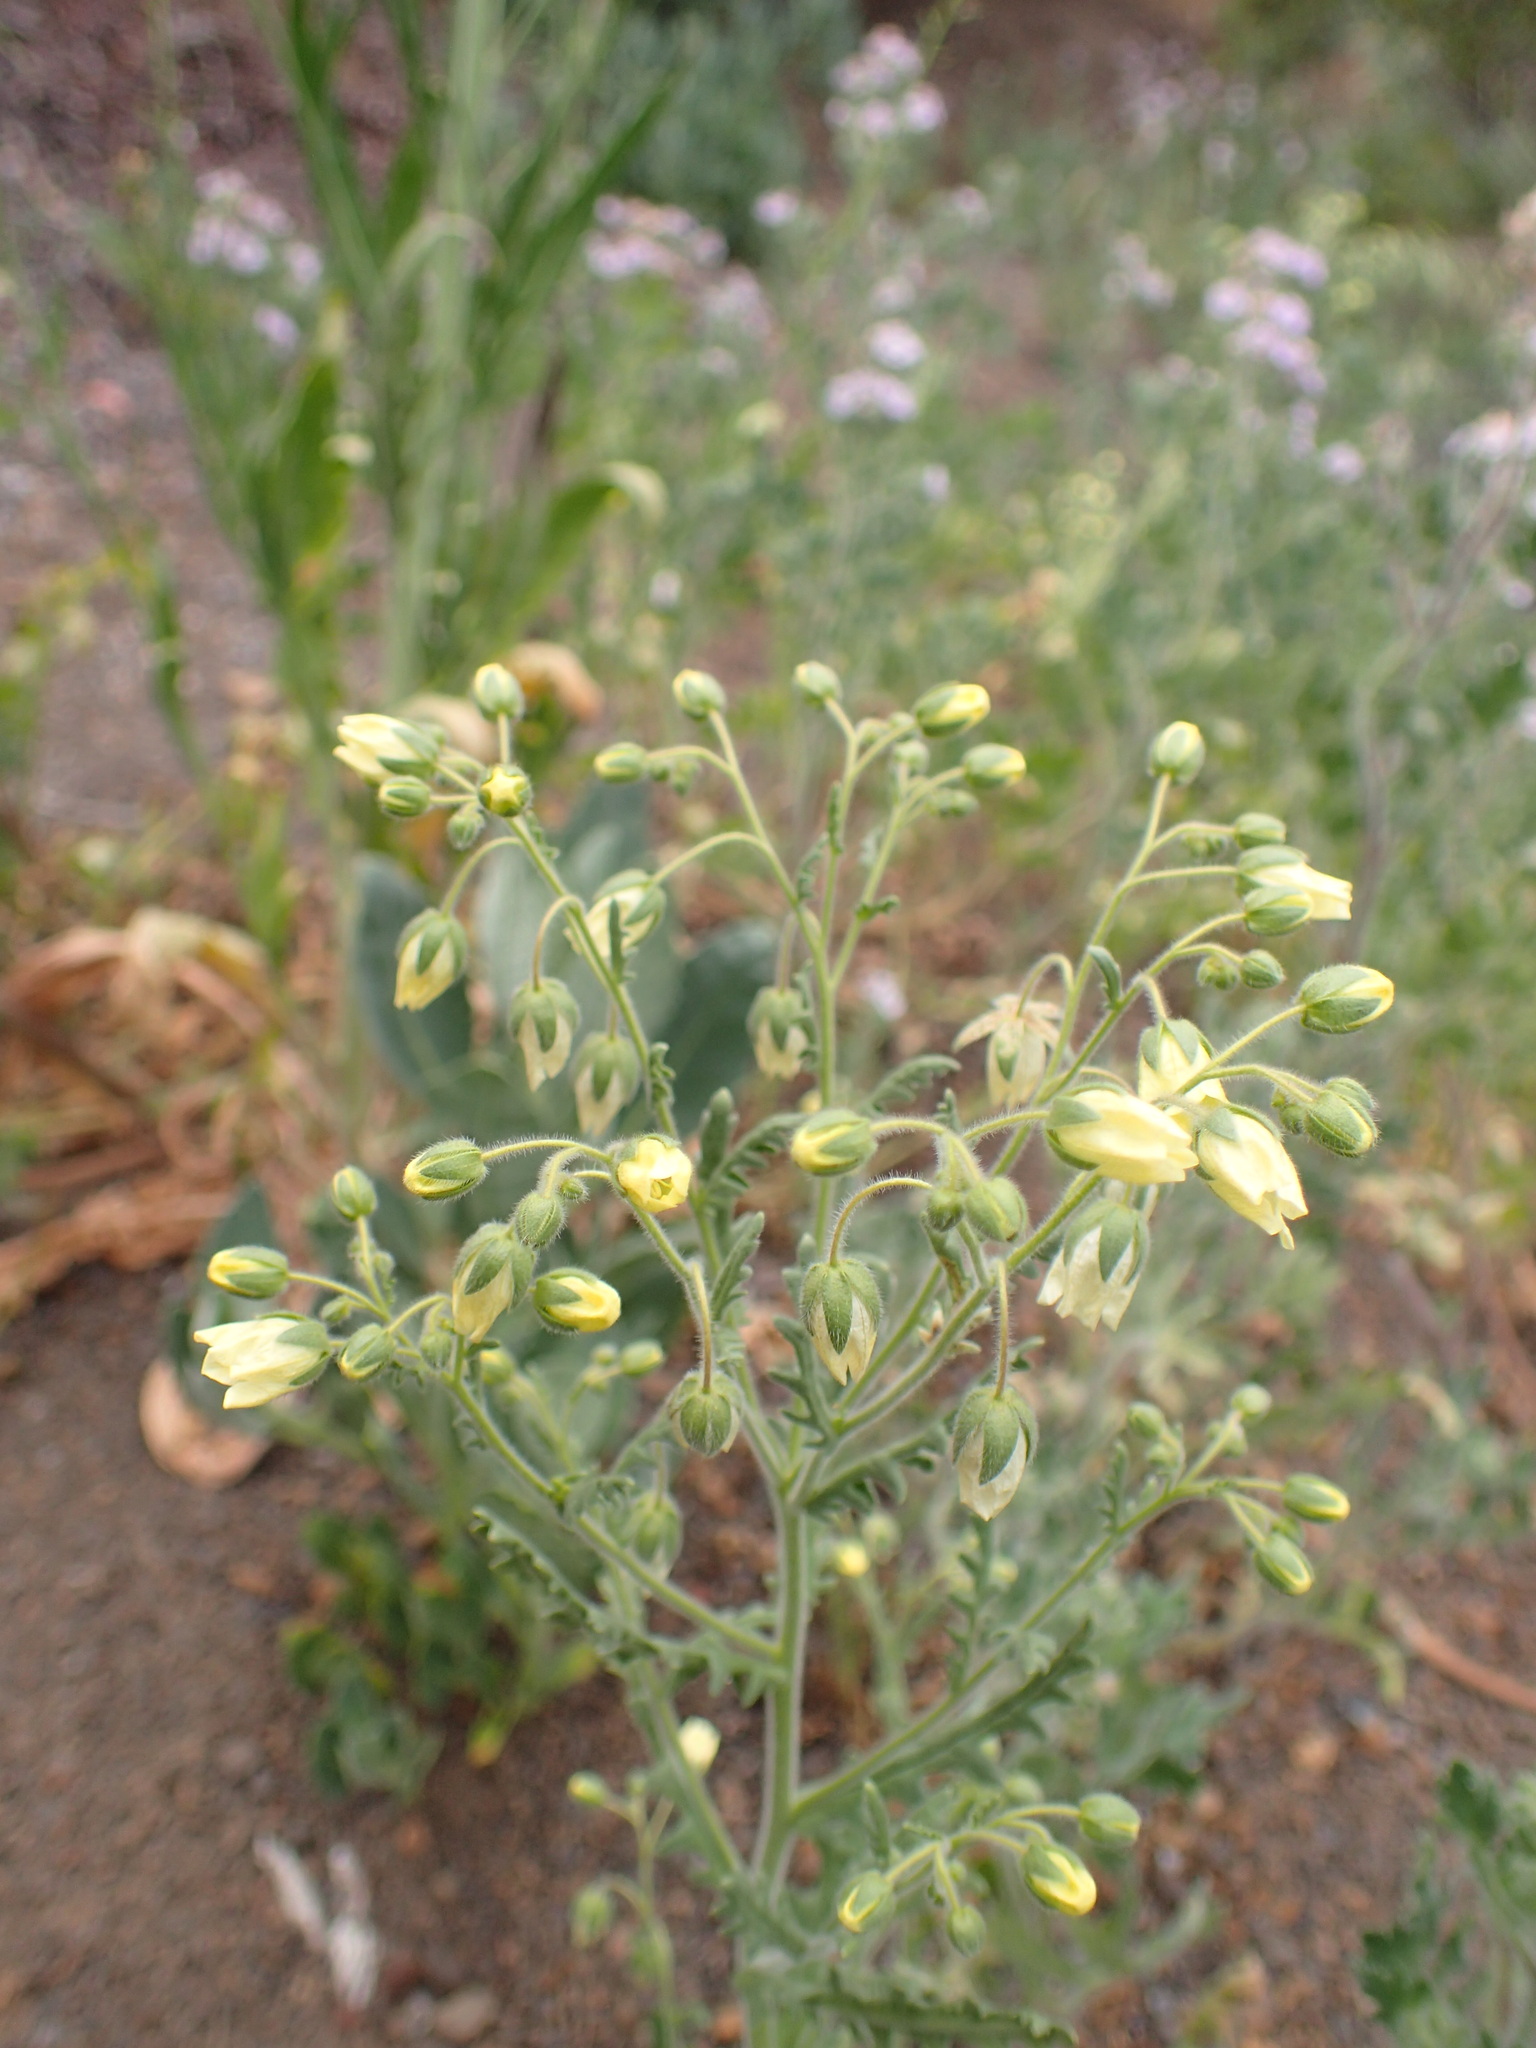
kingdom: Plantae
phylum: Tracheophyta
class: Magnoliopsida
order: Boraginales
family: Hydrophyllaceae
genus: Emmenanthe
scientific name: Emmenanthe penduliflora
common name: Whispering-bells
